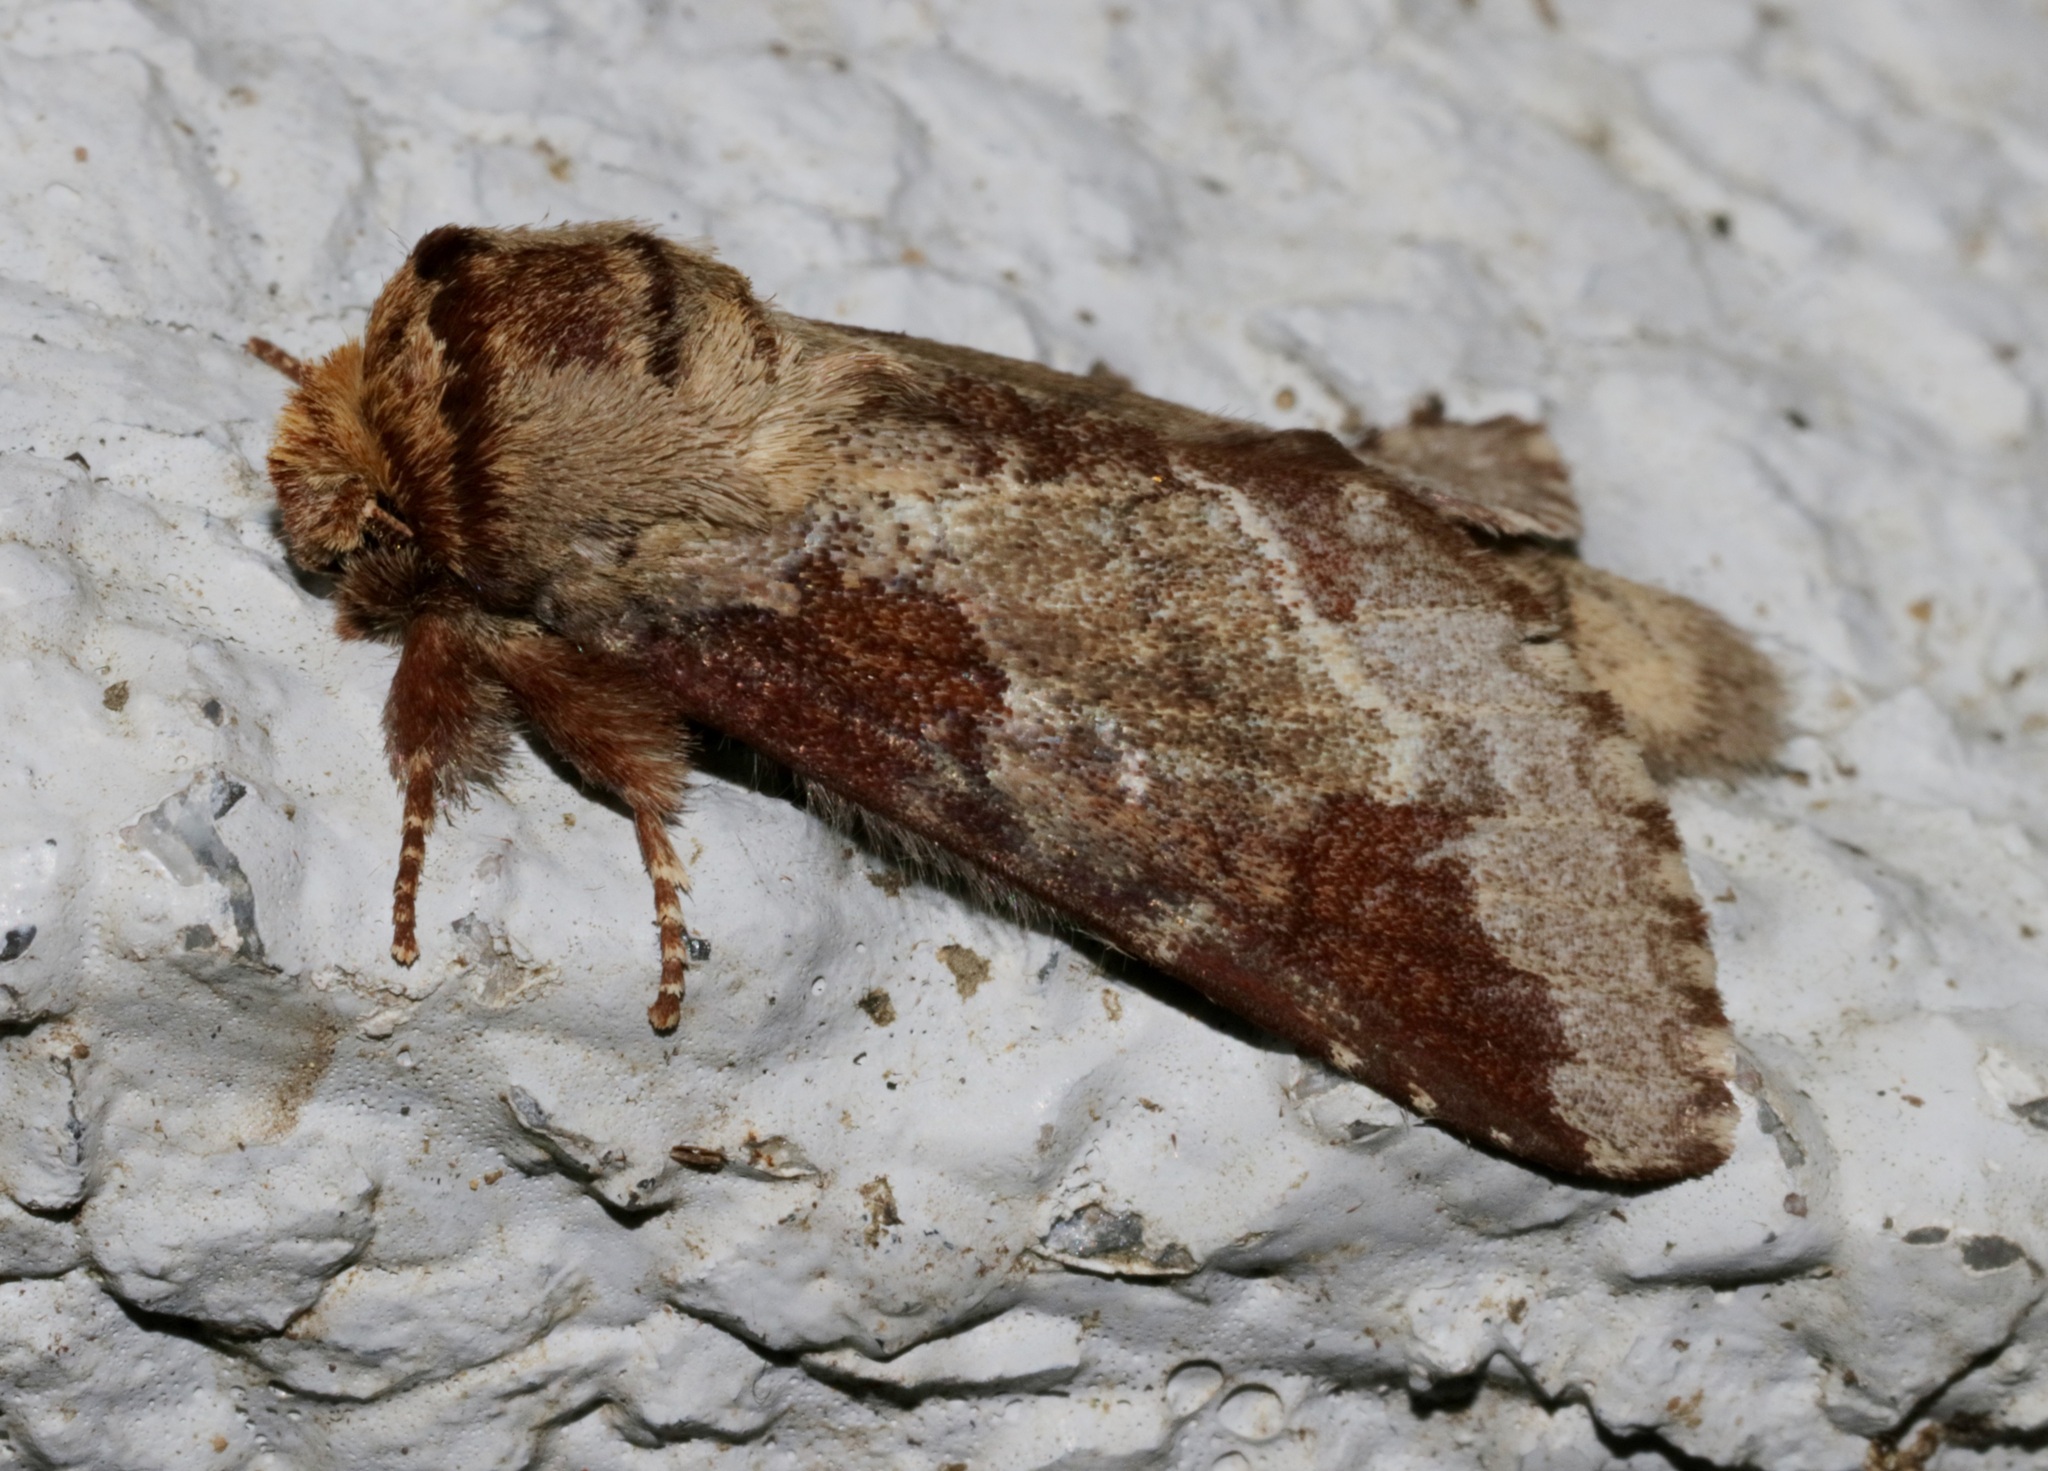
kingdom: Animalia
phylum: Arthropoda
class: Insecta
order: Lepidoptera
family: Notodontidae
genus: Neodrymonia
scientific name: Neodrymonia taipoensis
